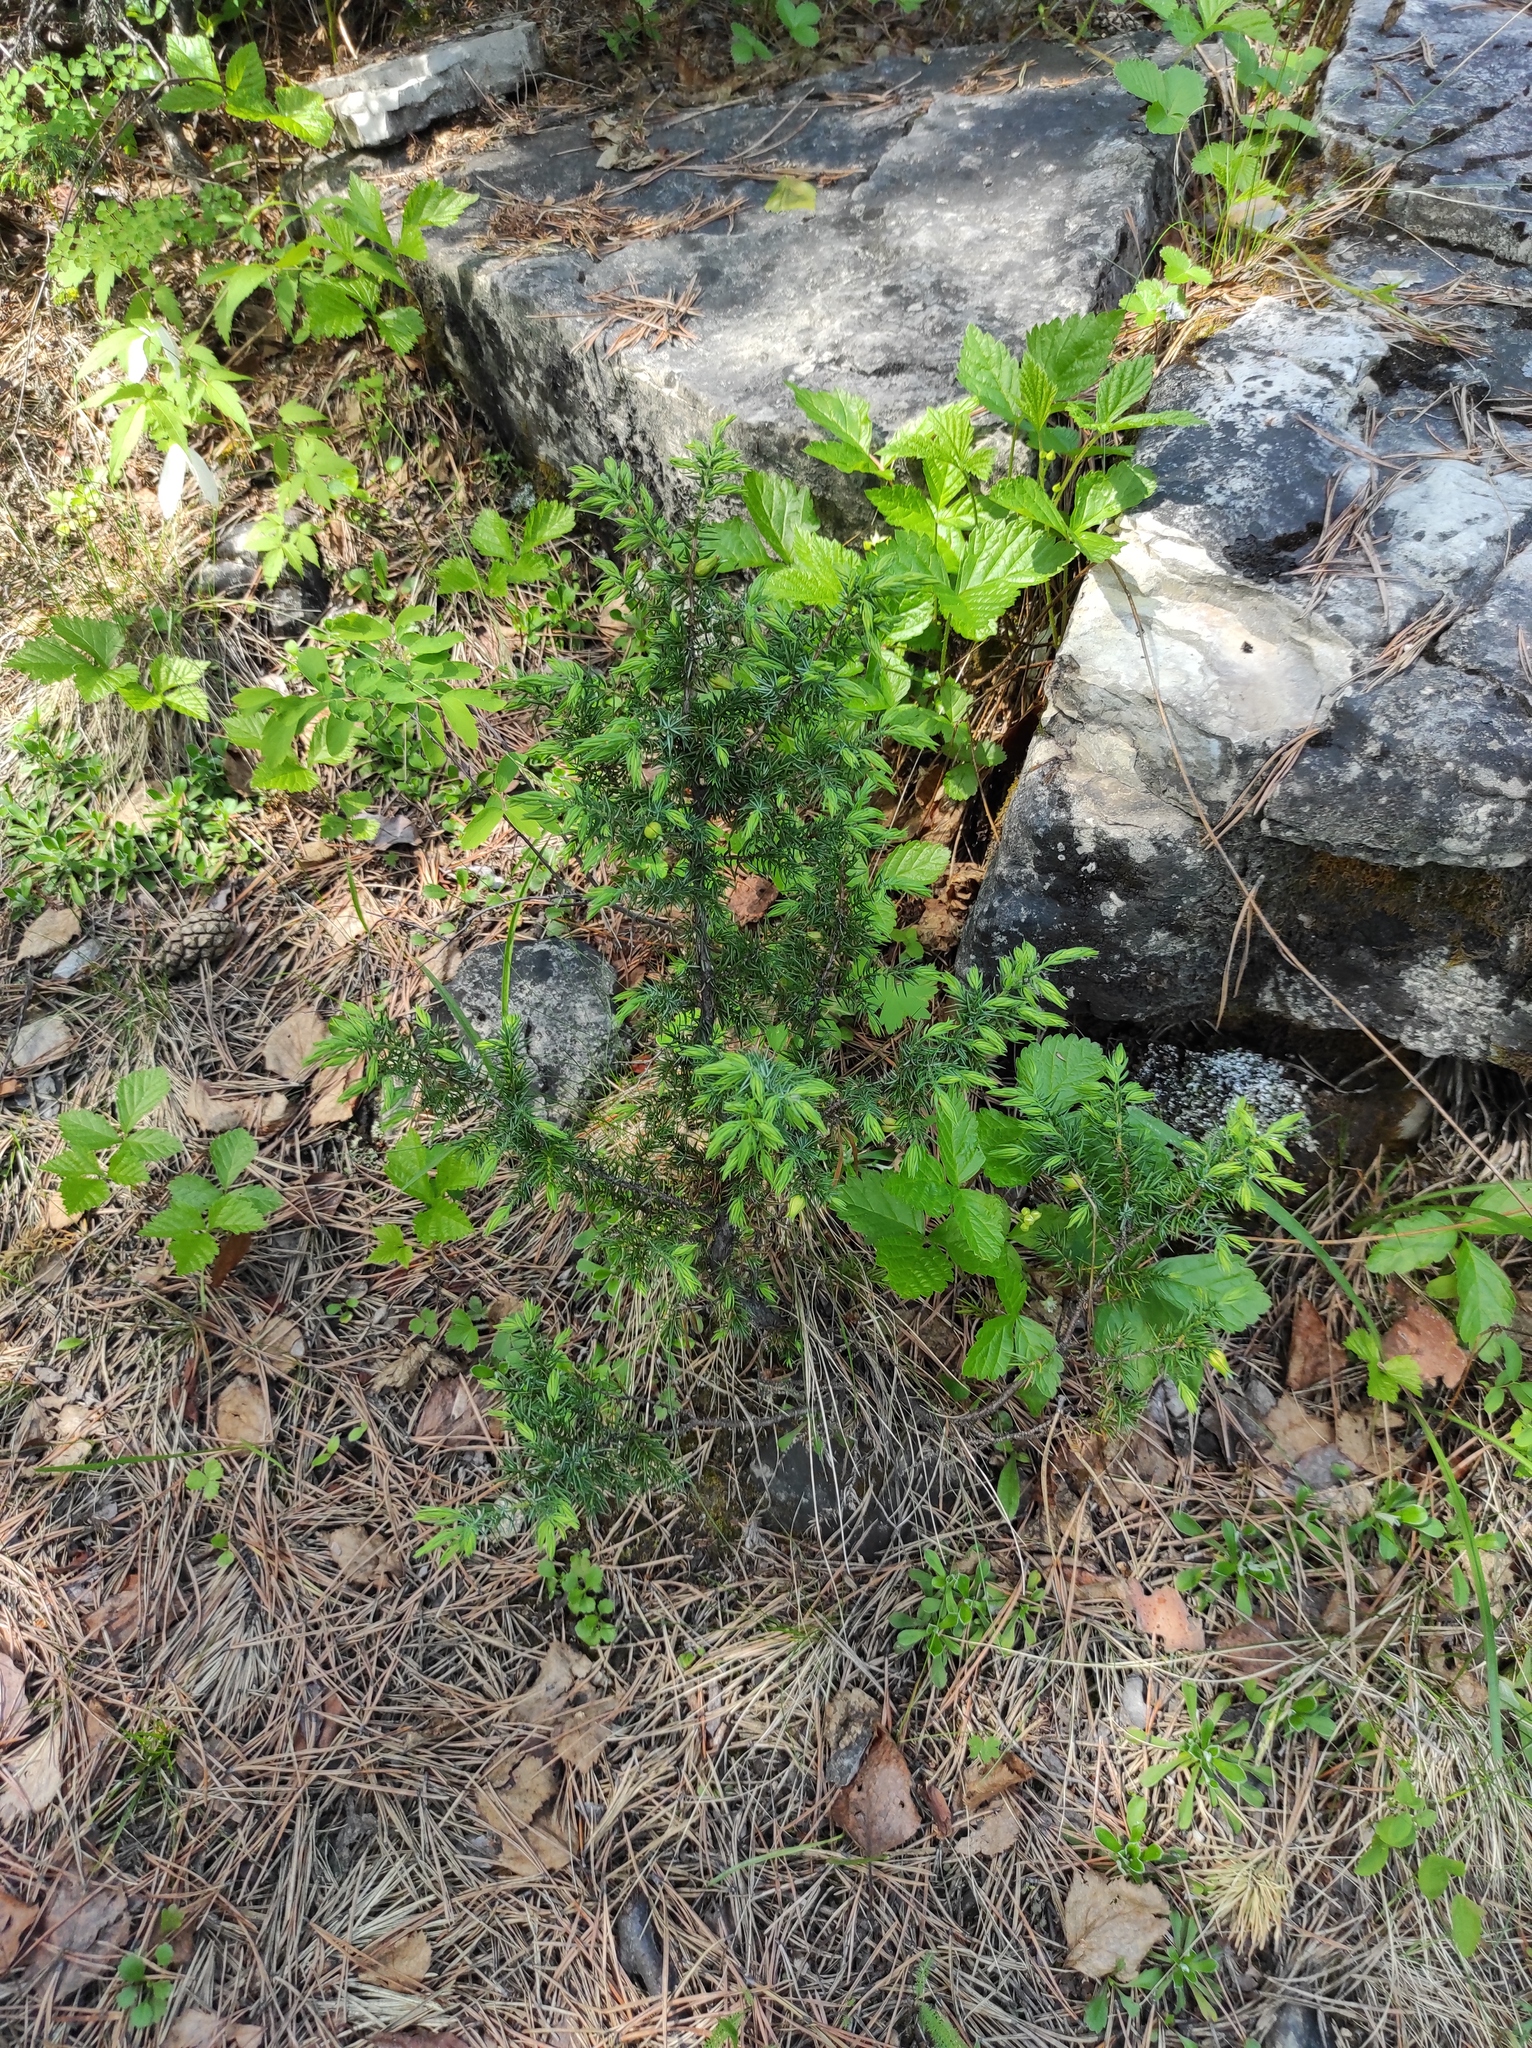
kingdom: Plantae
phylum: Tracheophyta
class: Pinopsida
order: Pinales
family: Cupressaceae
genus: Juniperus
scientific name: Juniperus communis
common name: Common juniper
